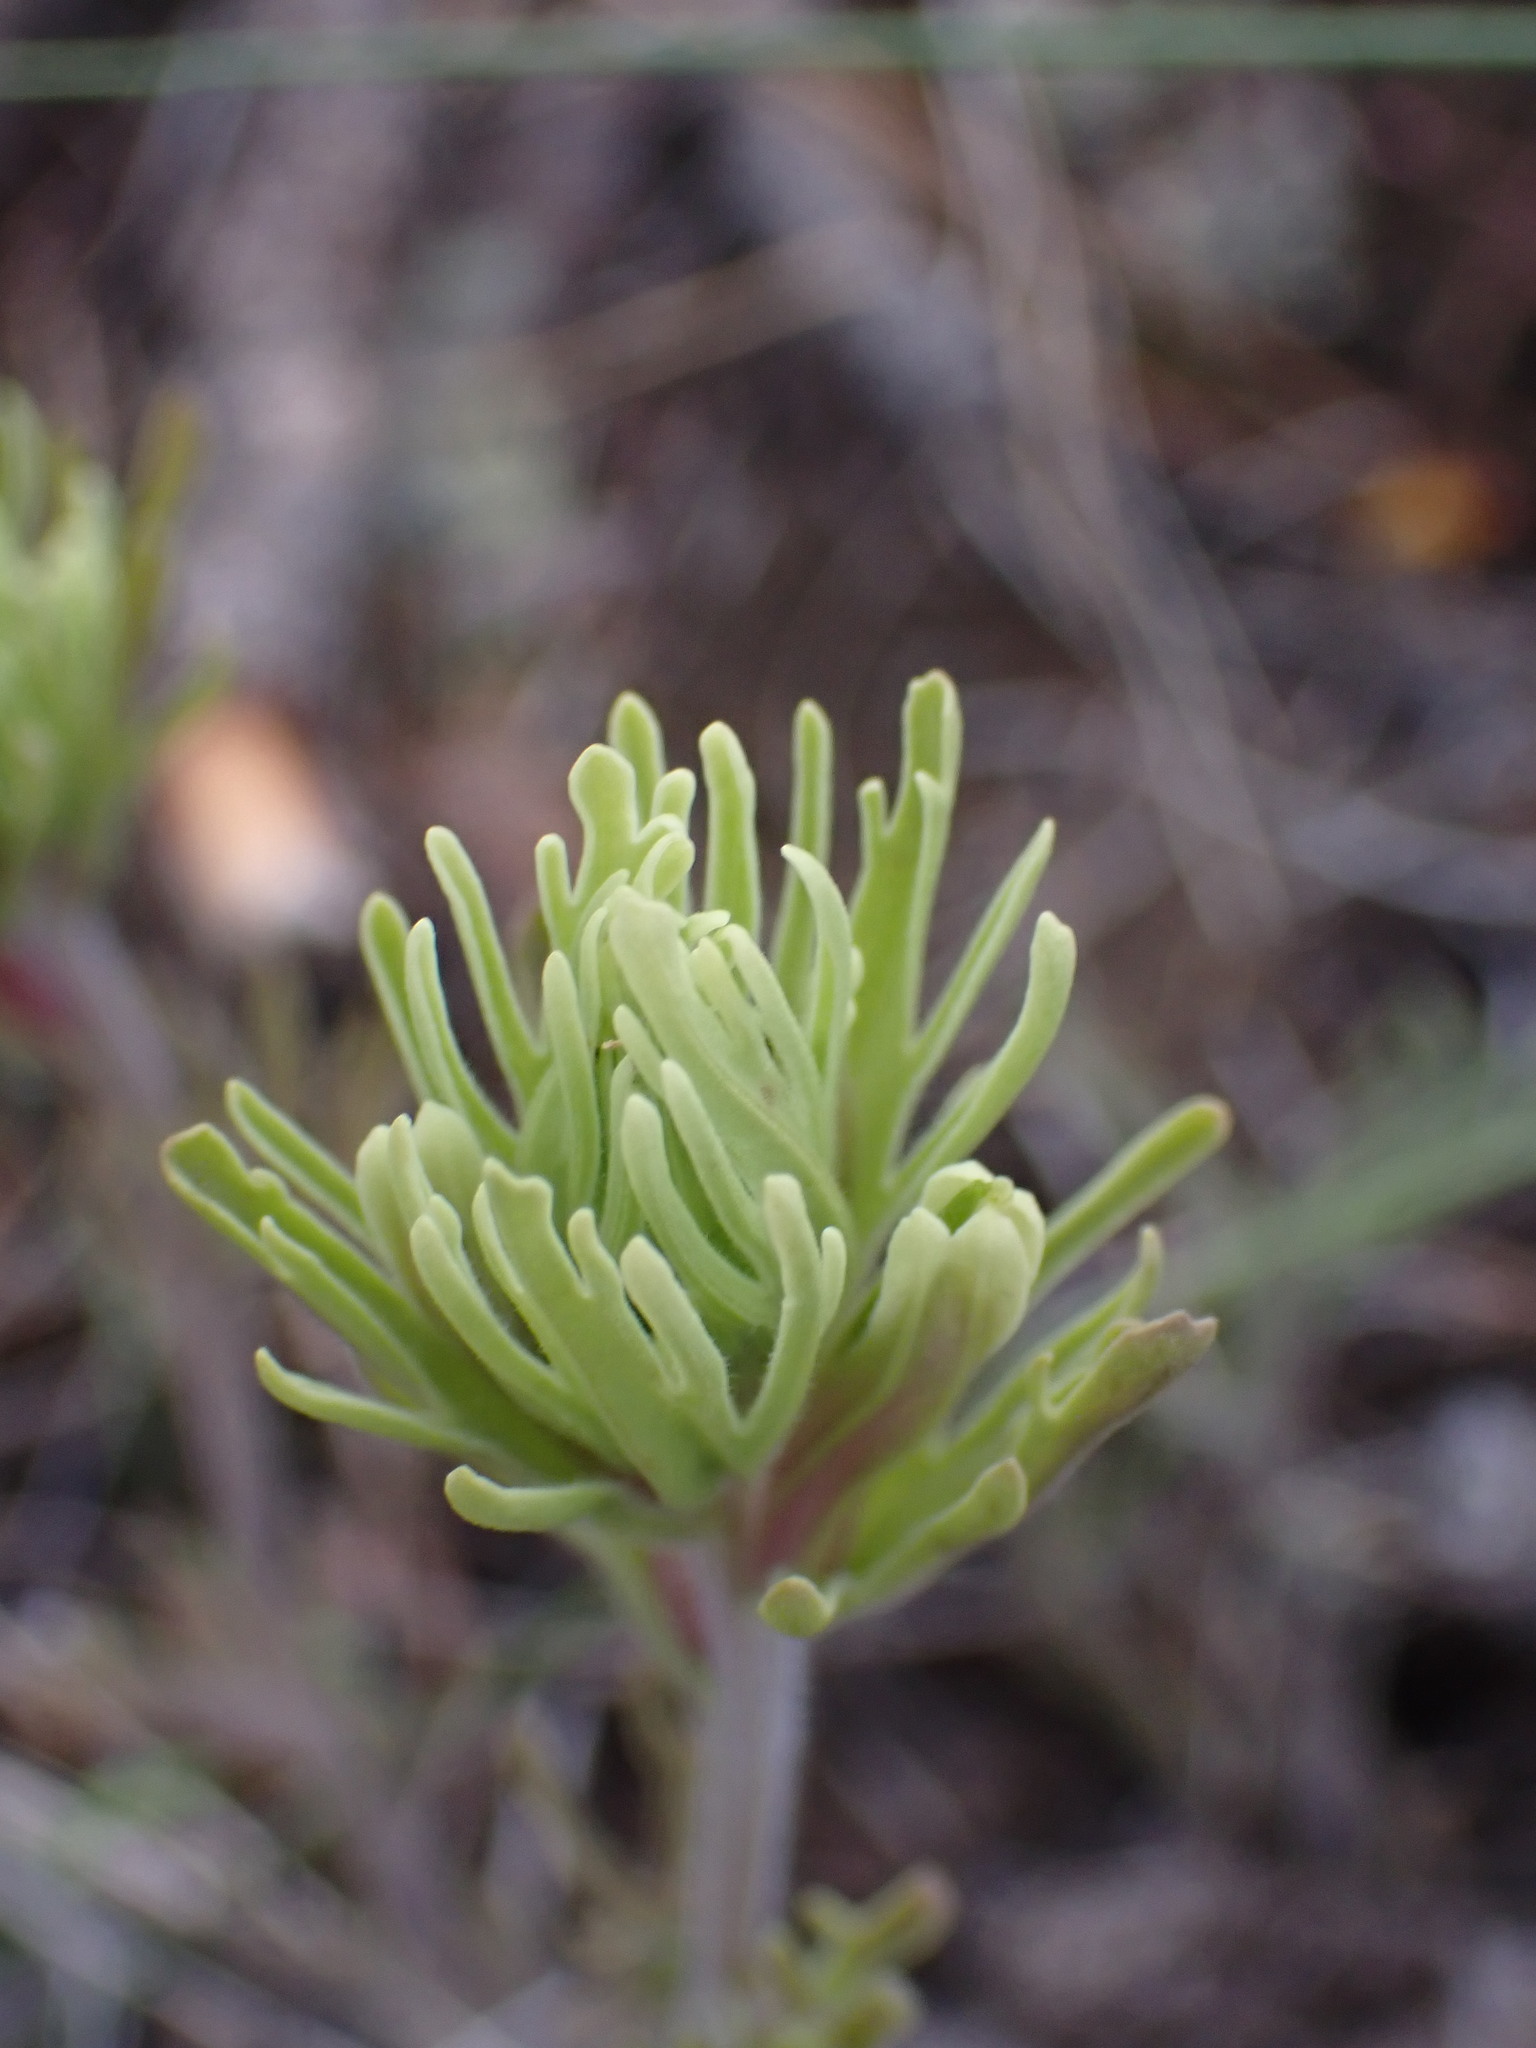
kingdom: Plantae
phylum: Tracheophyta
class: Magnoliopsida
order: Lamiales
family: Orobanchaceae
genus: Castilleja
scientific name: Castilleja thompsonii
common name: Thompson's paintbrush
